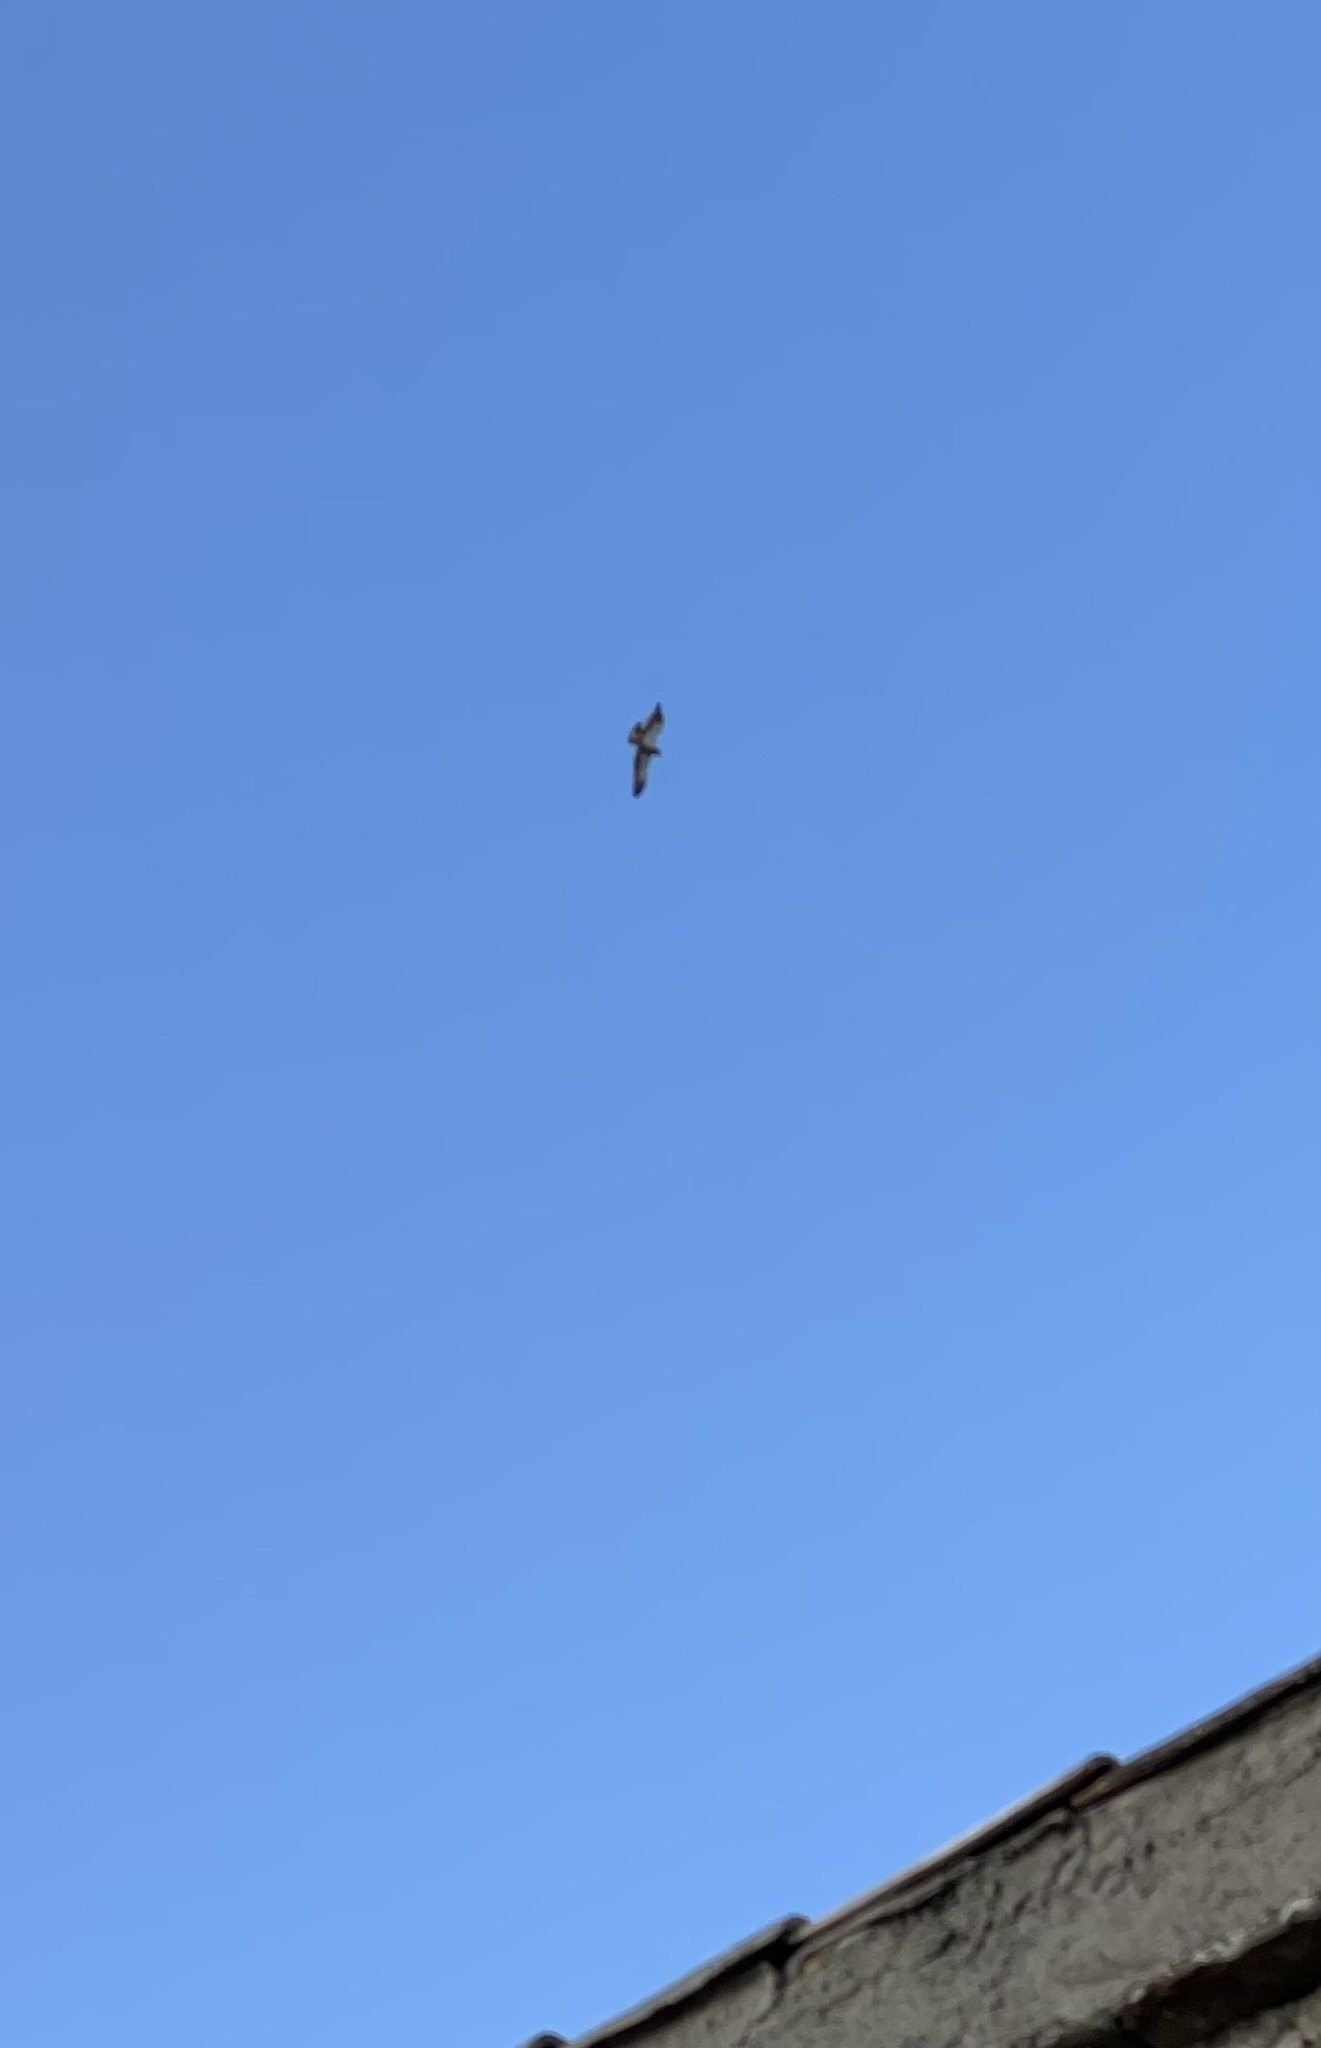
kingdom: Animalia
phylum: Chordata
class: Aves
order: Accipitriformes
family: Accipitridae
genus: Hieraaetus
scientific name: Hieraaetus pennatus
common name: Booted eagle
